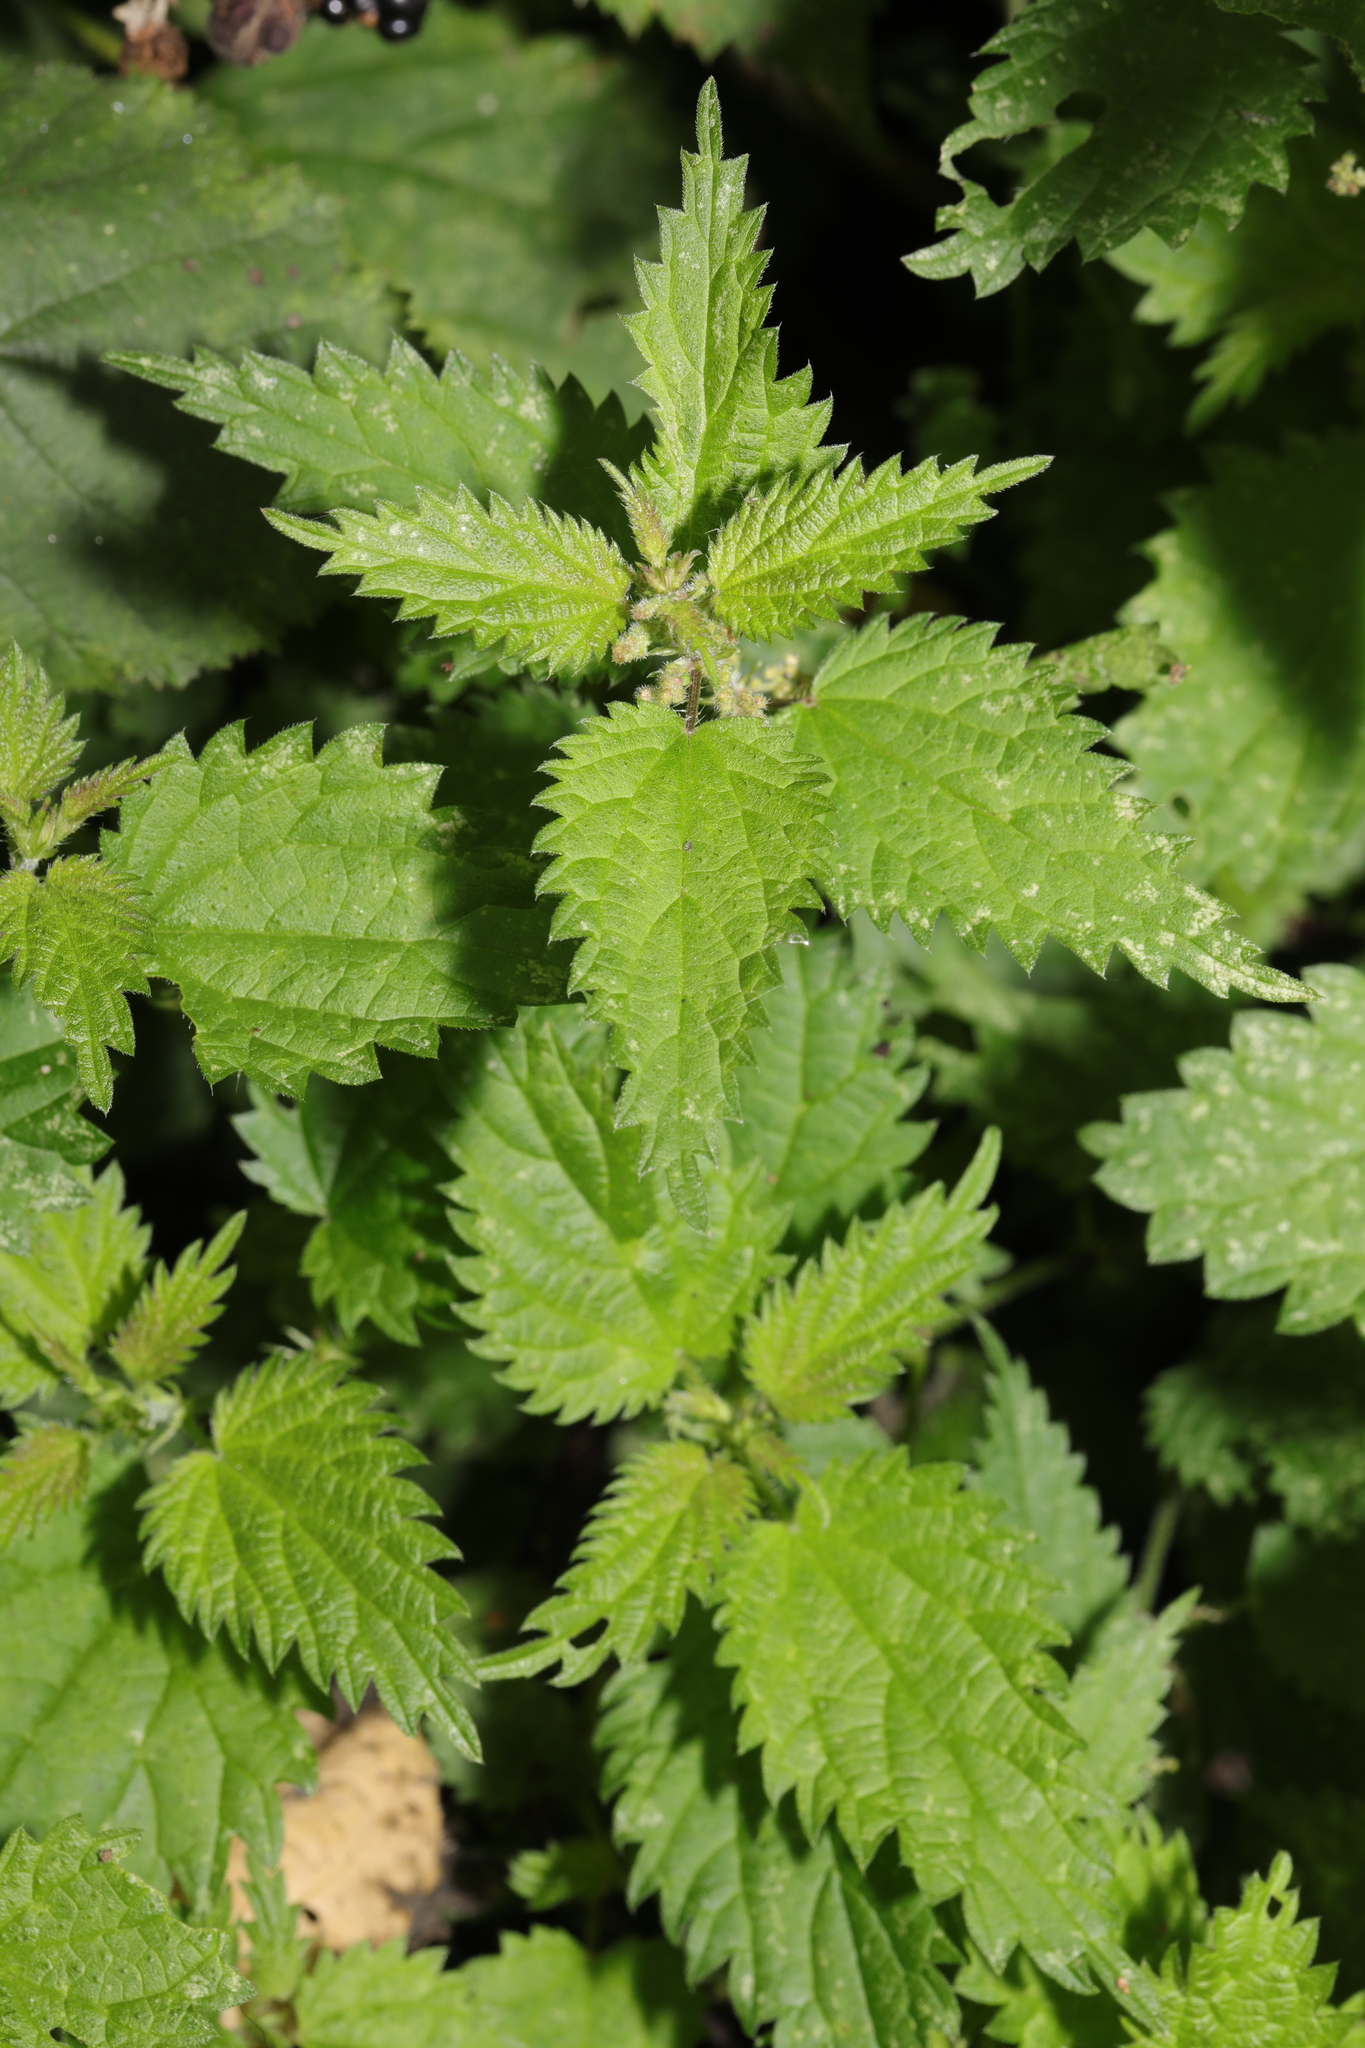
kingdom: Plantae
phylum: Tracheophyta
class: Magnoliopsida
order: Rosales
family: Urticaceae
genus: Urtica
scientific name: Urtica dioica
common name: Common nettle
